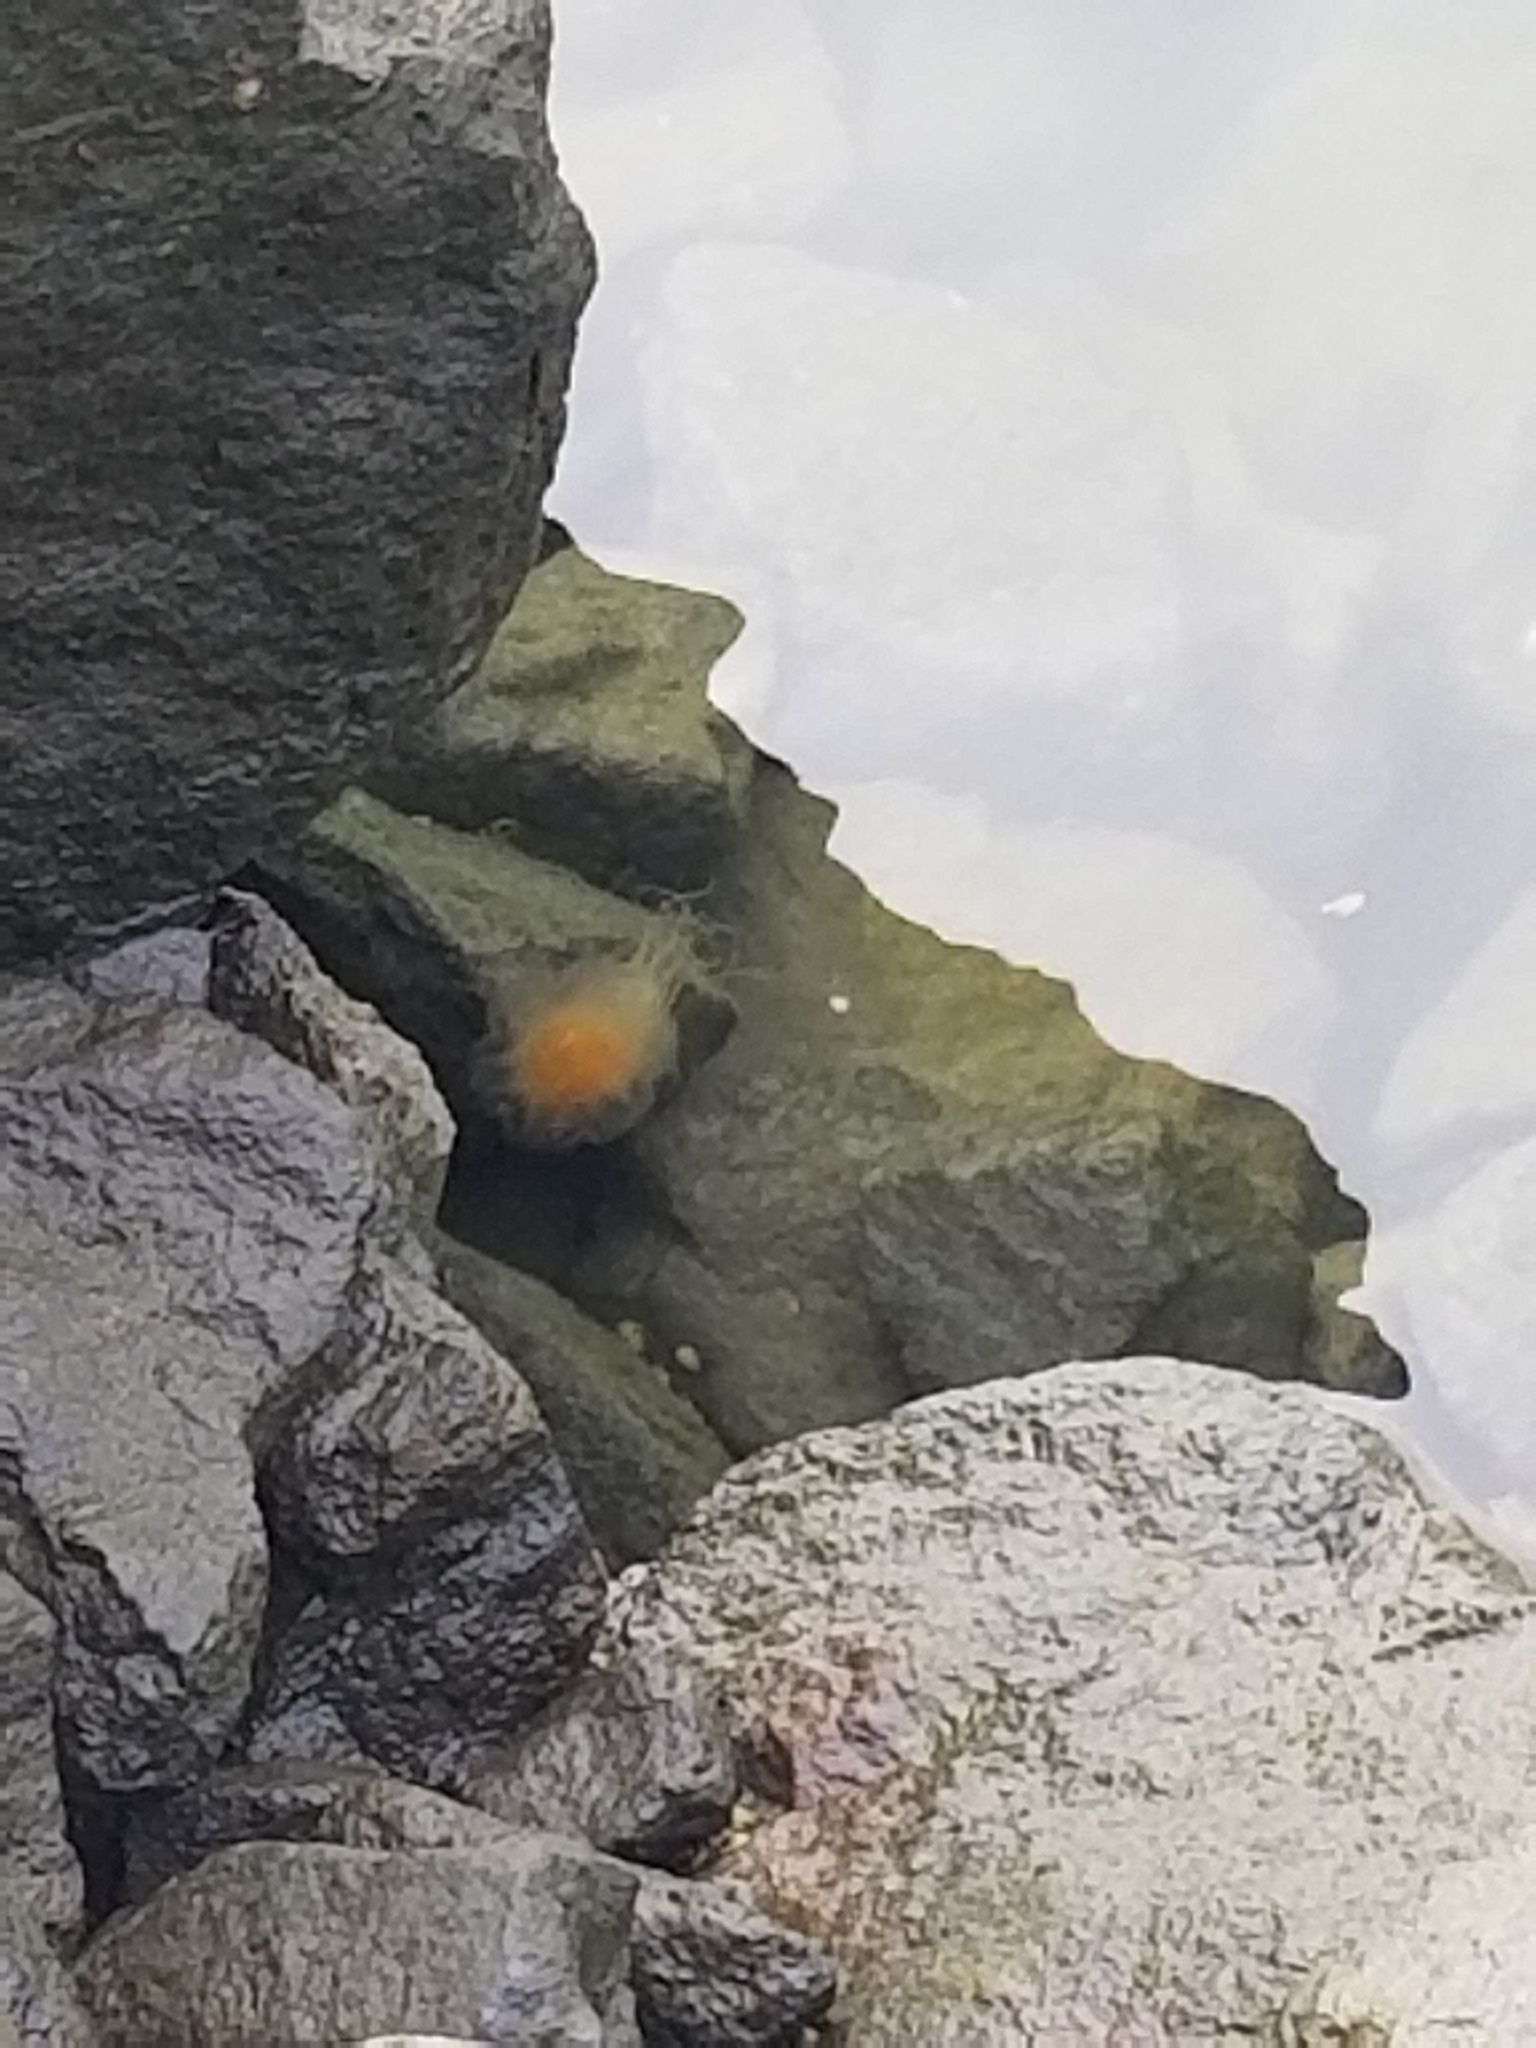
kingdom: Animalia
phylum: Cnidaria
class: Scyphozoa
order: Semaeostomeae
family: Cyaneidae
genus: Cyanea
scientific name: Cyanea fulva
